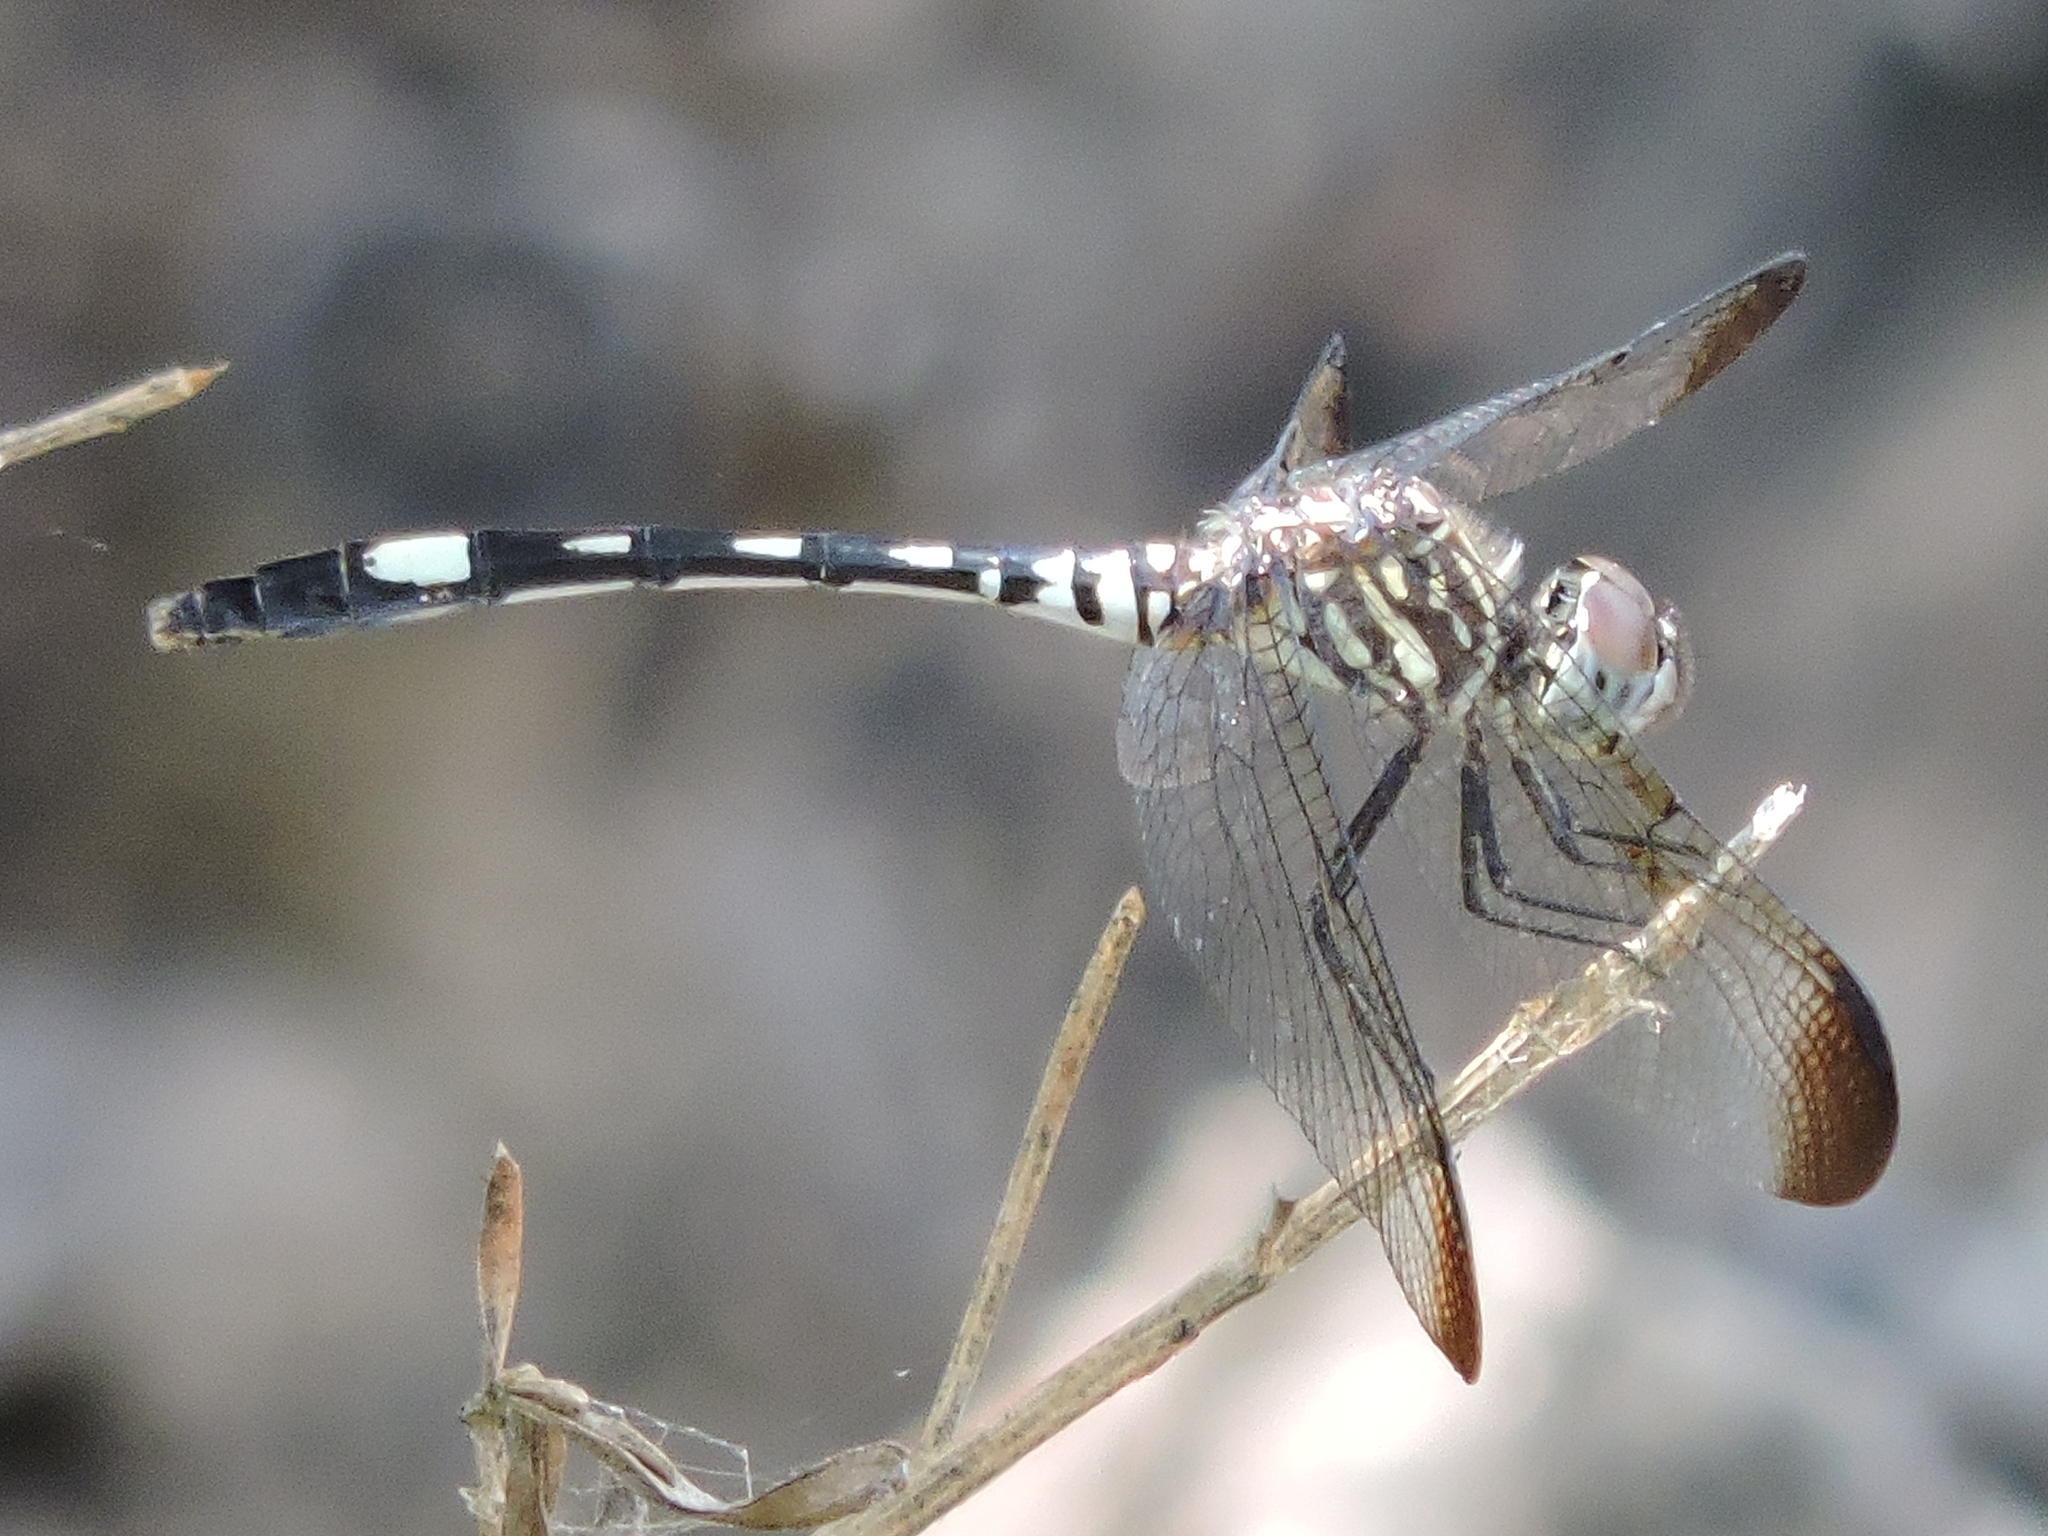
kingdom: Animalia
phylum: Arthropoda
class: Insecta
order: Odonata
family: Libellulidae
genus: Dythemis
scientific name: Dythemis velox
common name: Swift setwing
